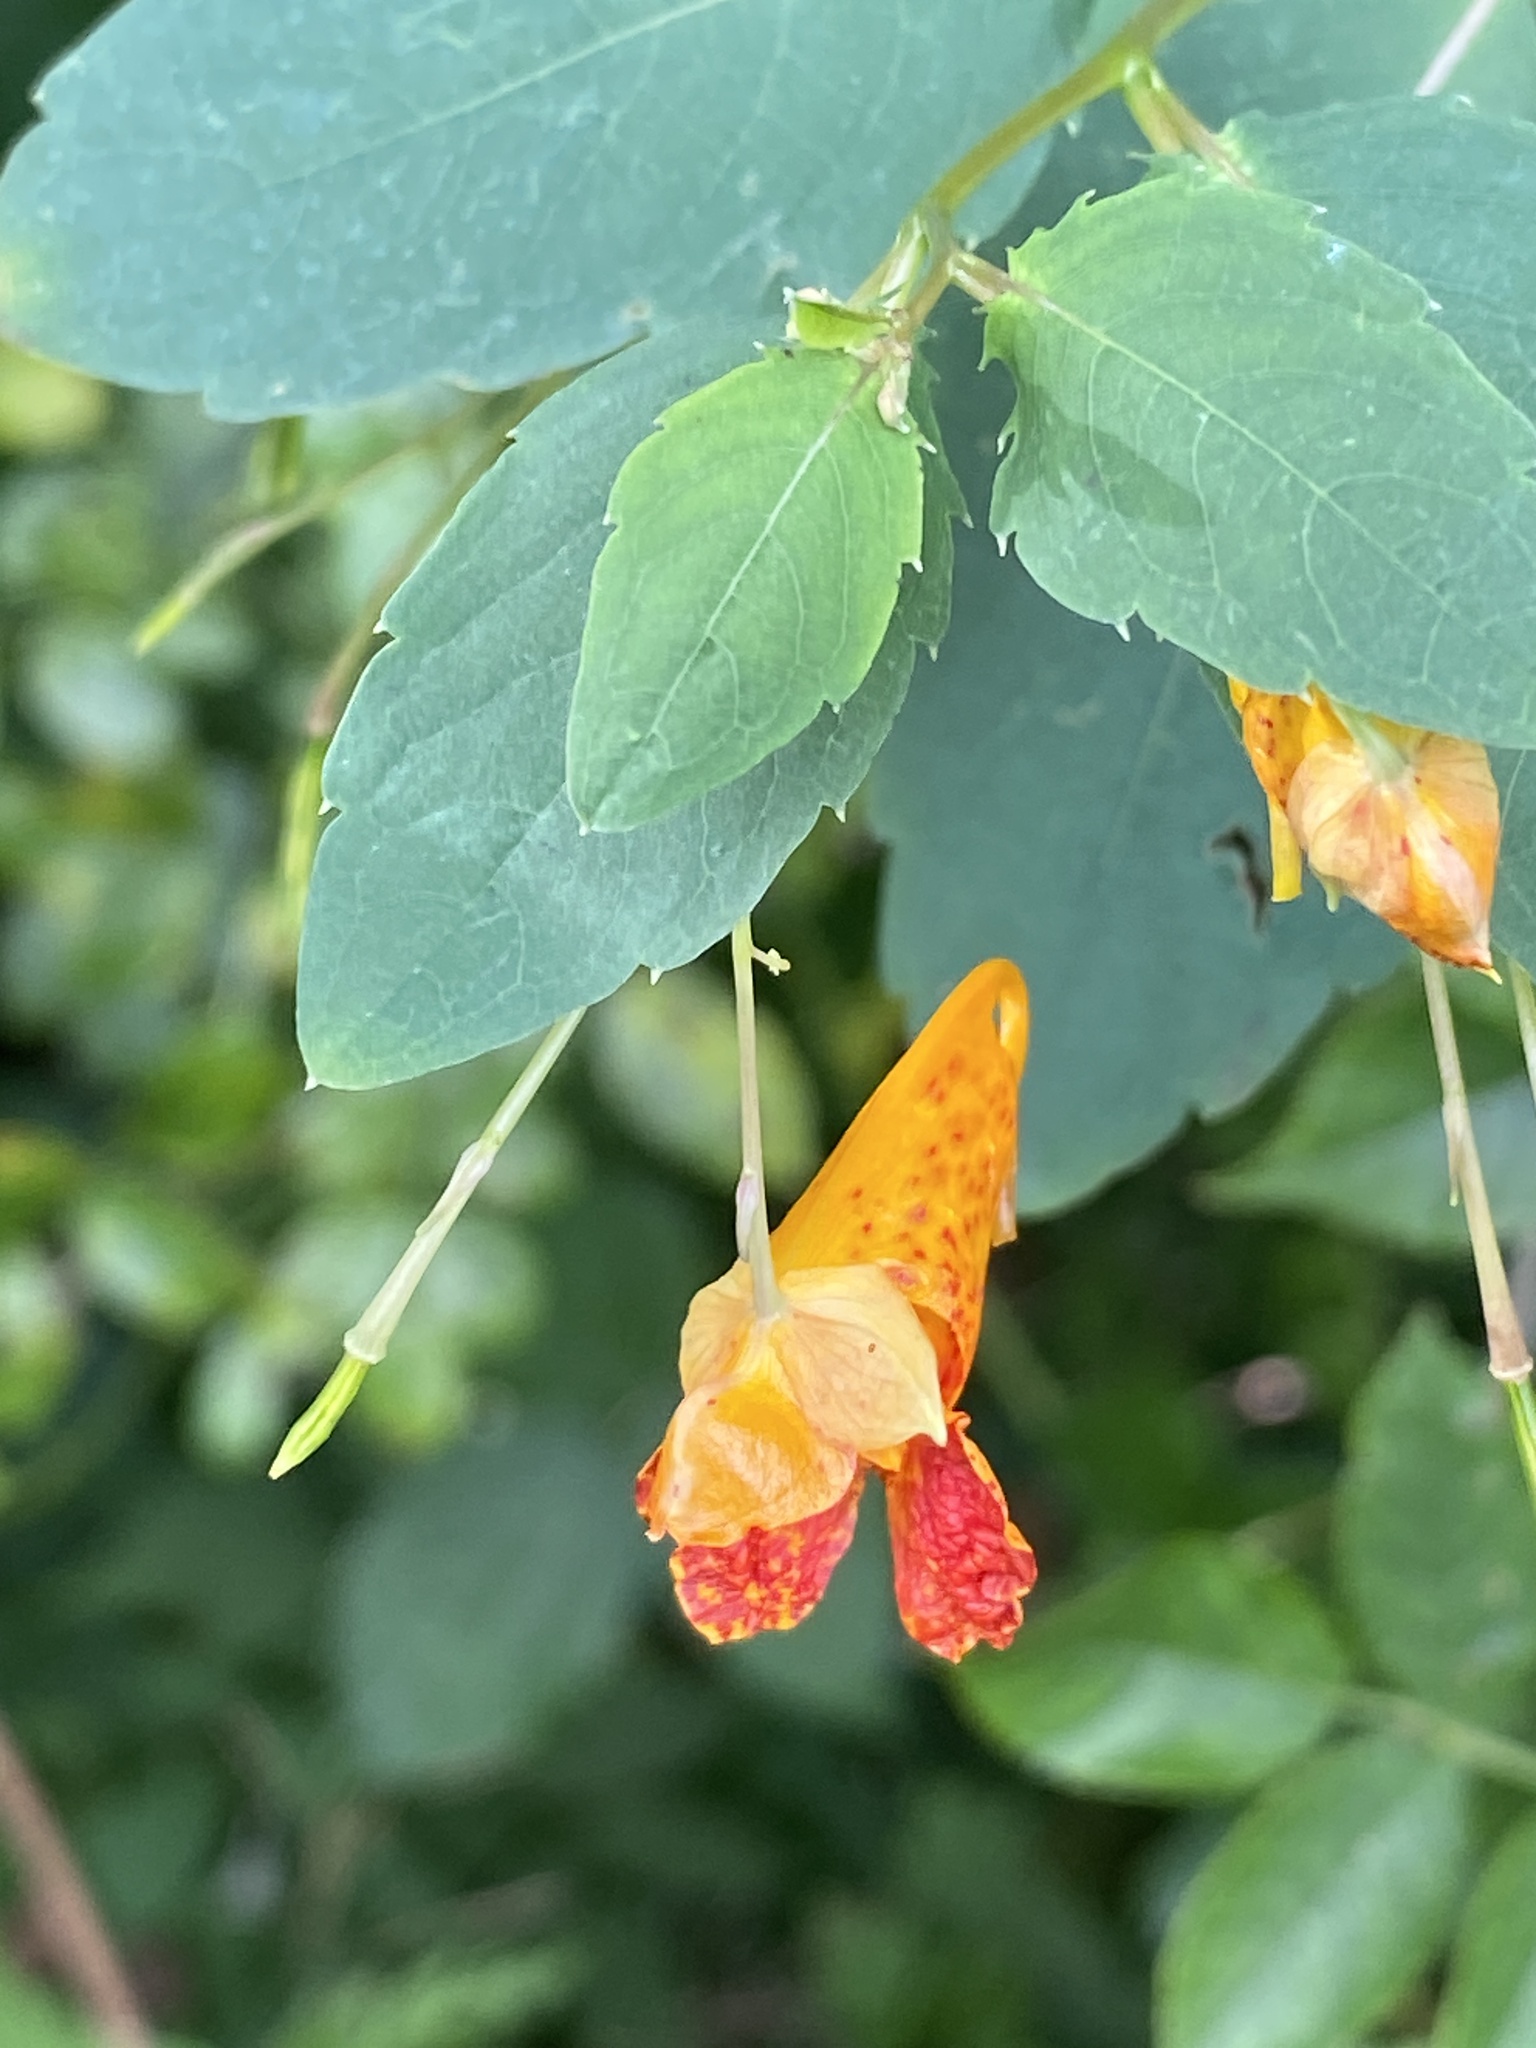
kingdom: Plantae
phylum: Tracheophyta
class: Magnoliopsida
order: Ericales
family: Balsaminaceae
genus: Impatiens
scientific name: Impatiens capensis
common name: Orange balsam
